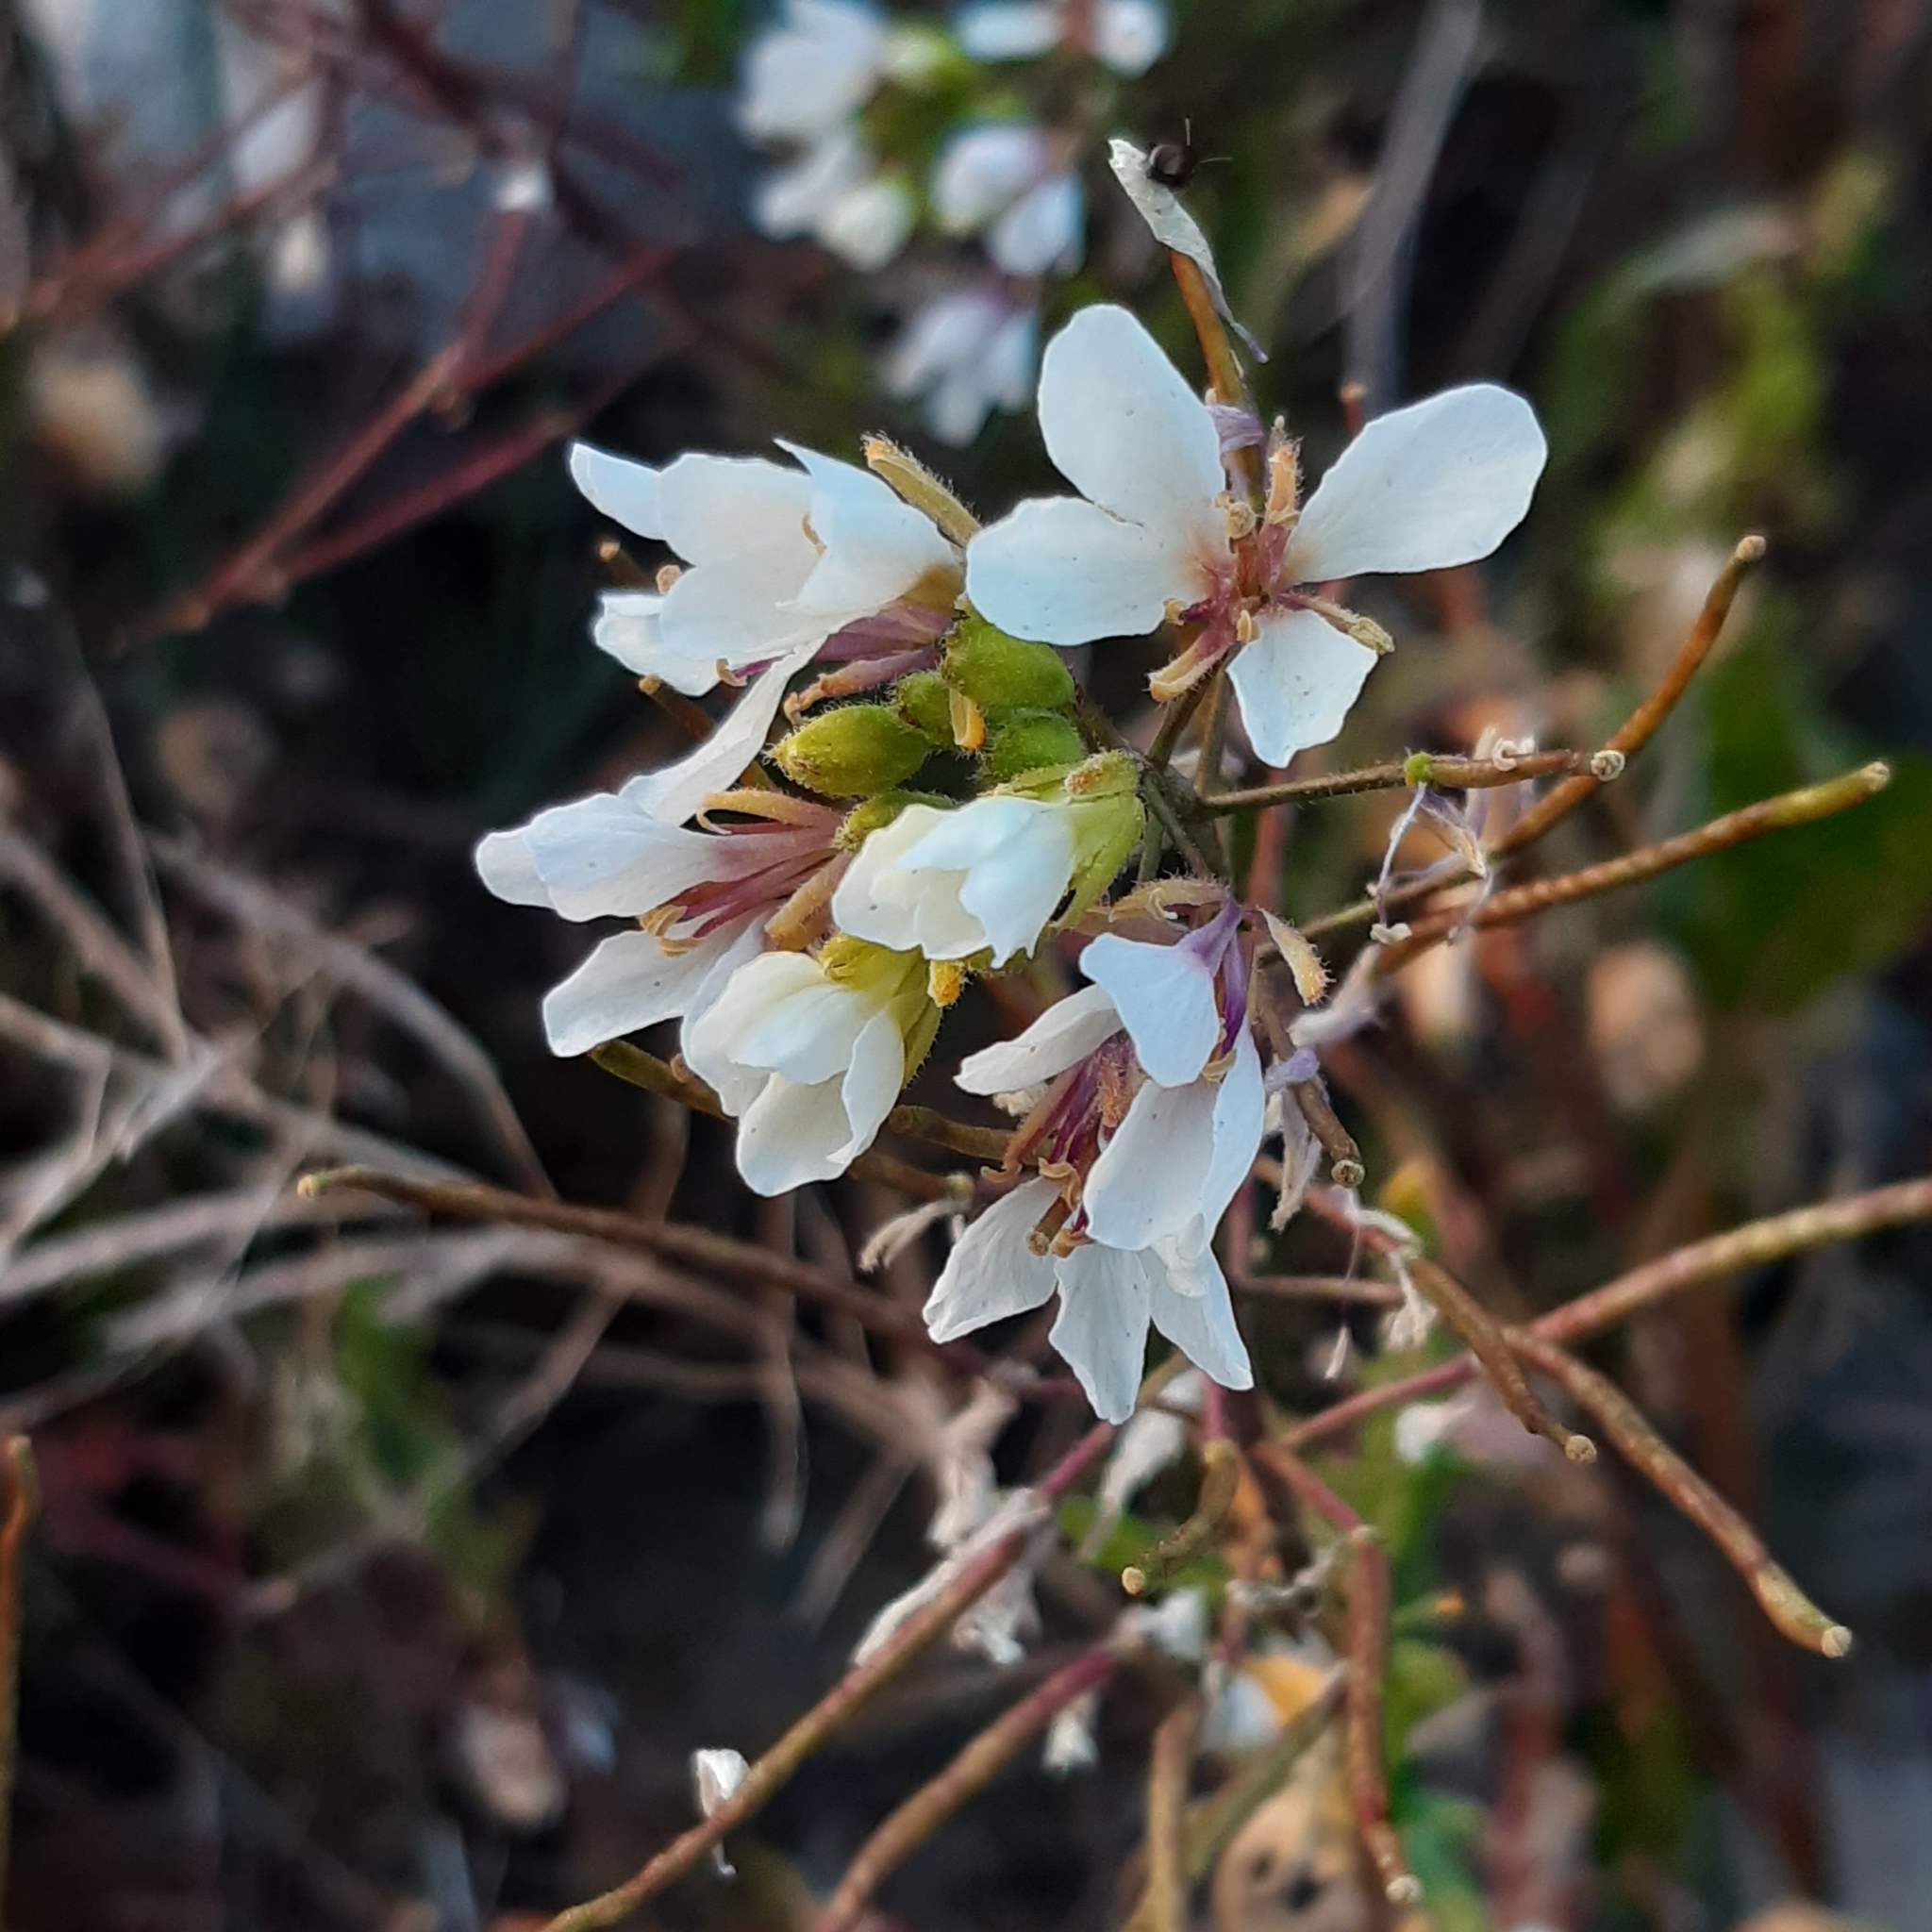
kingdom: Plantae
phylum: Tracheophyta
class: Magnoliopsida
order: Brassicales
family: Brassicaceae
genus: Diplotaxis
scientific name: Diplotaxis erucoides
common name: White rocket
